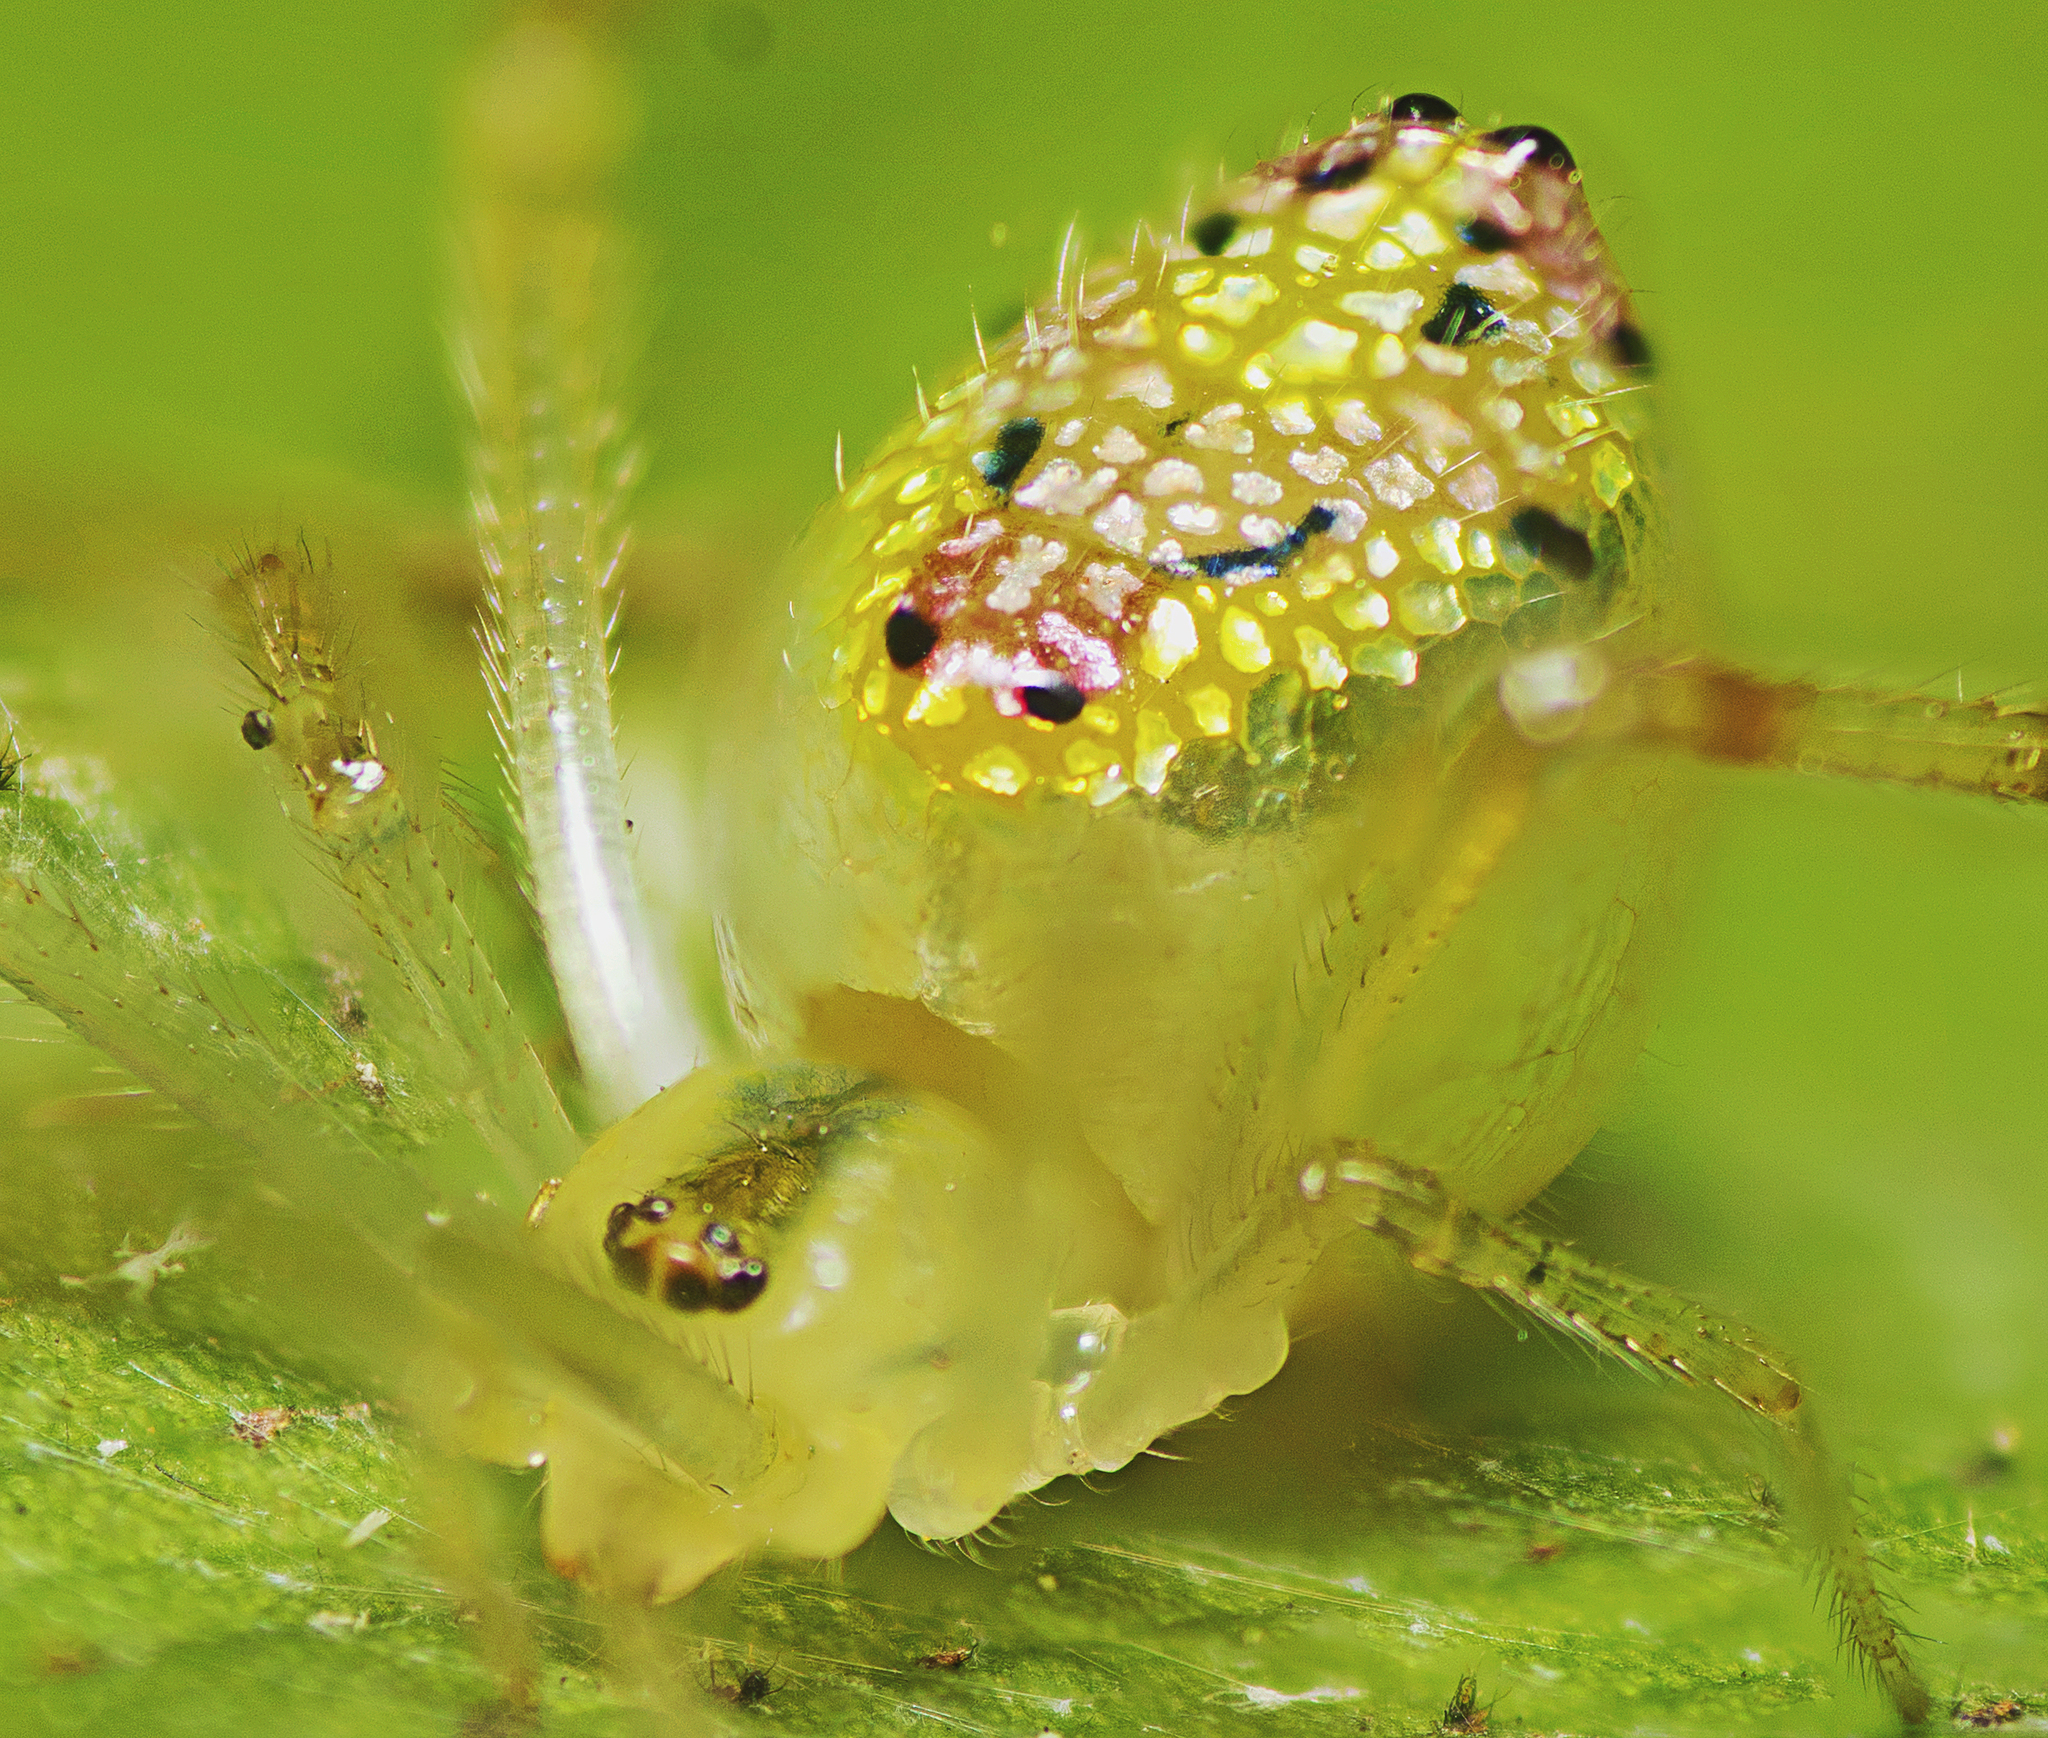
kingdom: Animalia
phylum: Arthropoda
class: Arachnida
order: Araneae
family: Theridiidae
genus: Thwaitesia
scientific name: Thwaitesia nigronodosa
